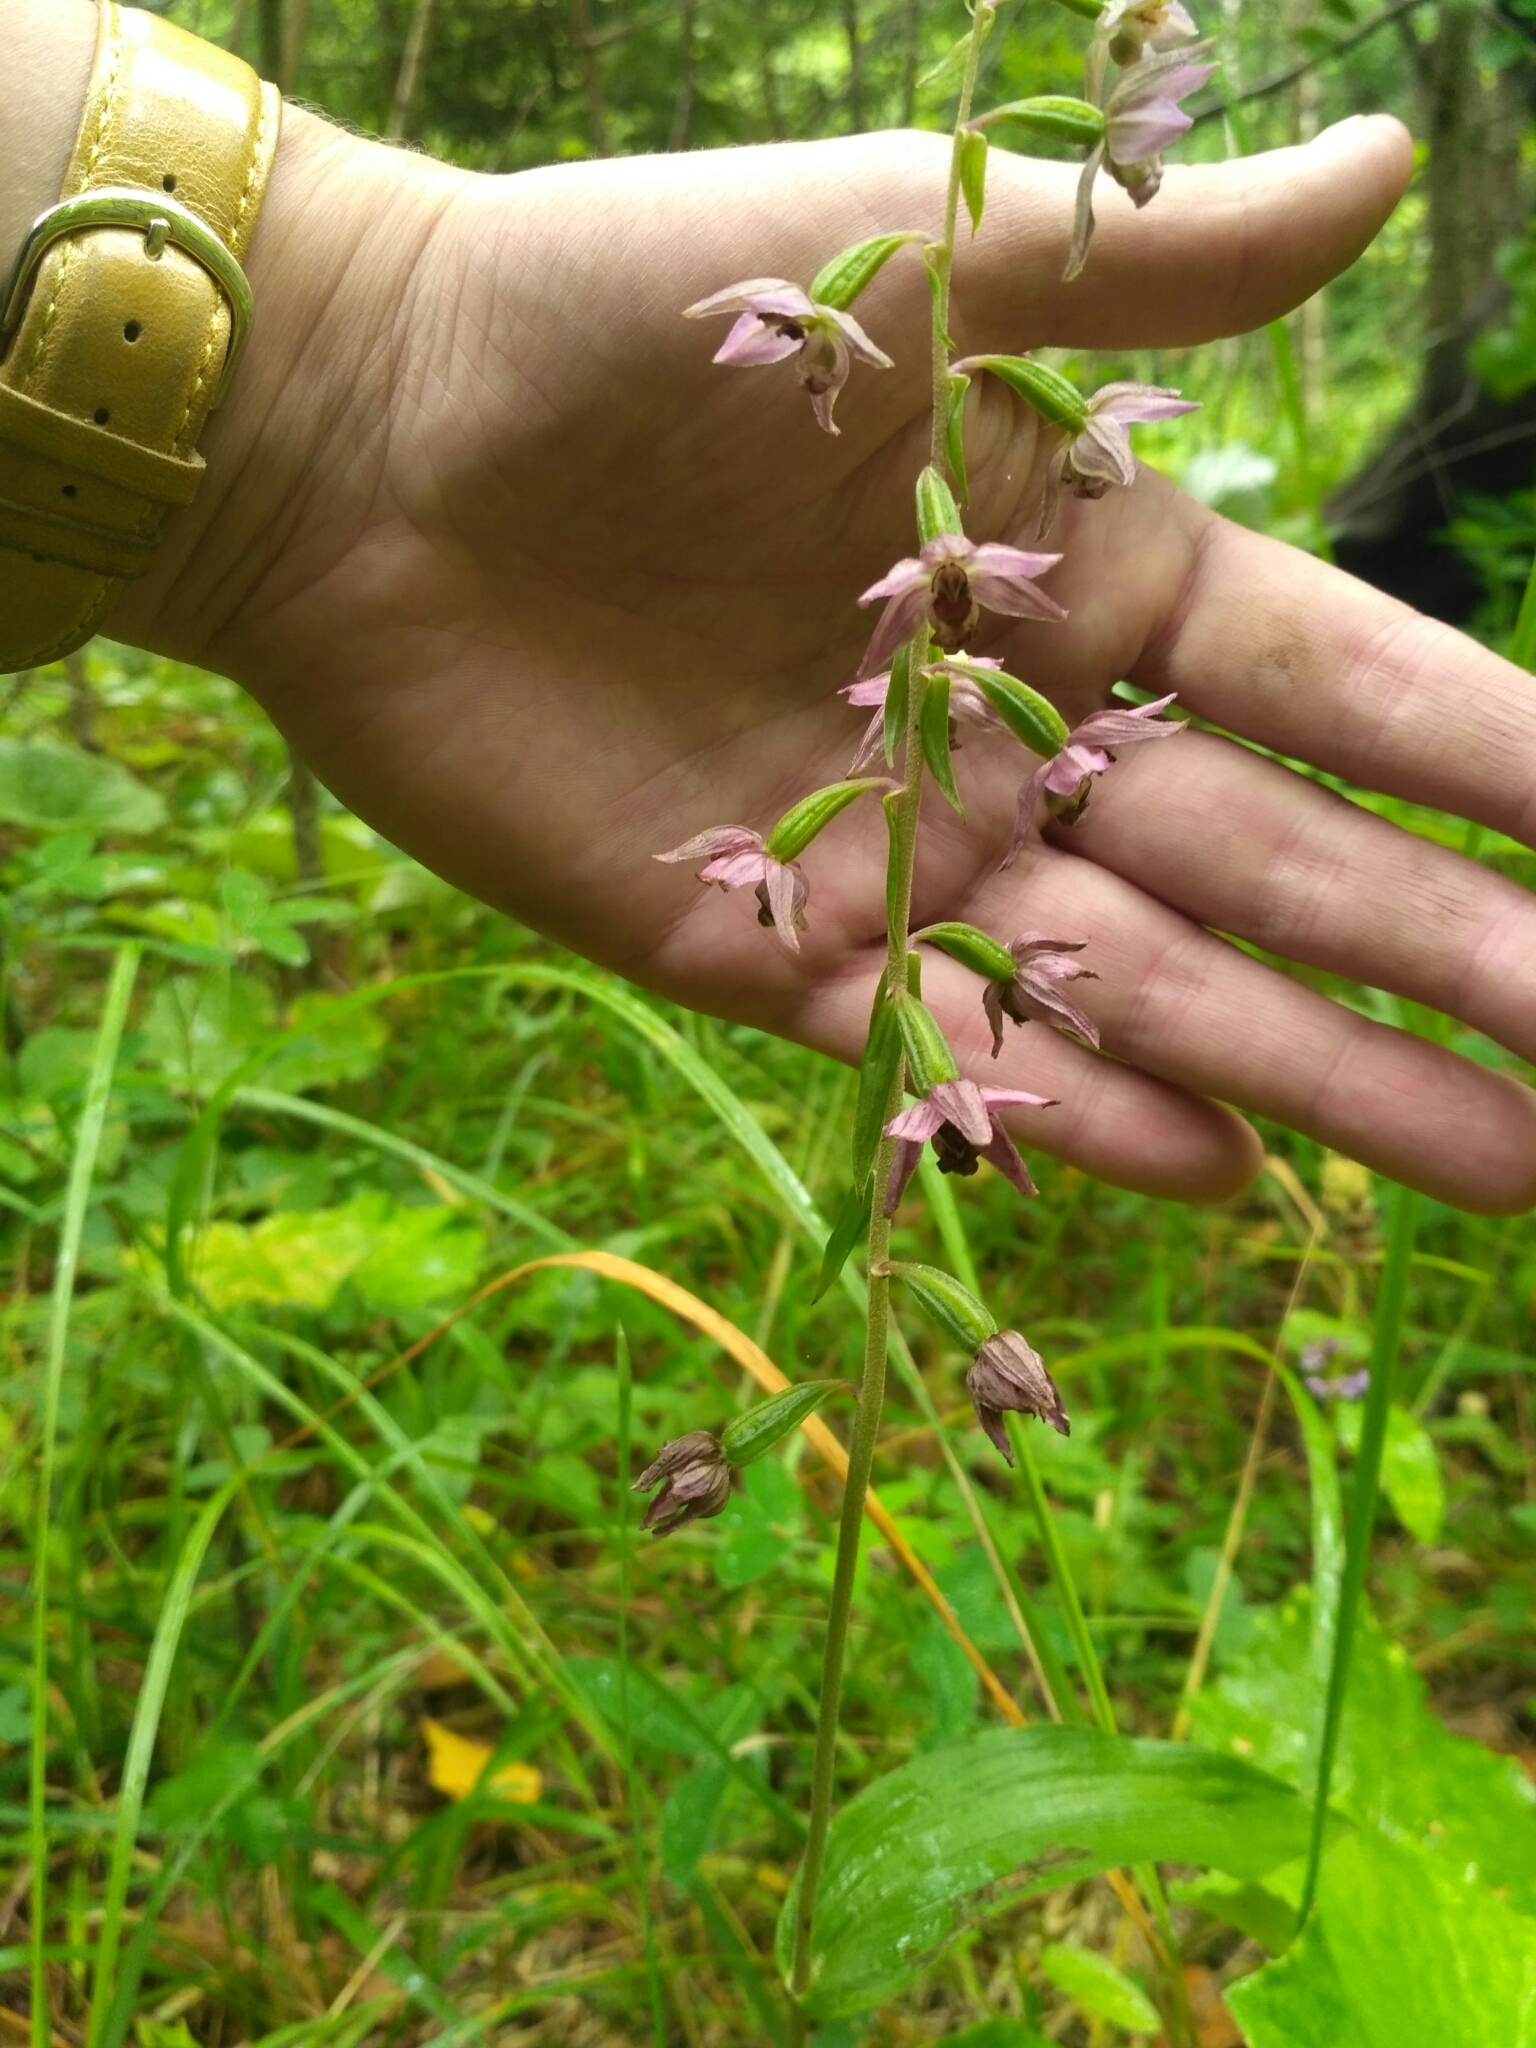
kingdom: Plantae
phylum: Tracheophyta
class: Liliopsida
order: Asparagales
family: Orchidaceae
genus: Epipactis
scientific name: Epipactis helleborine
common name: Broad-leaved helleborine
